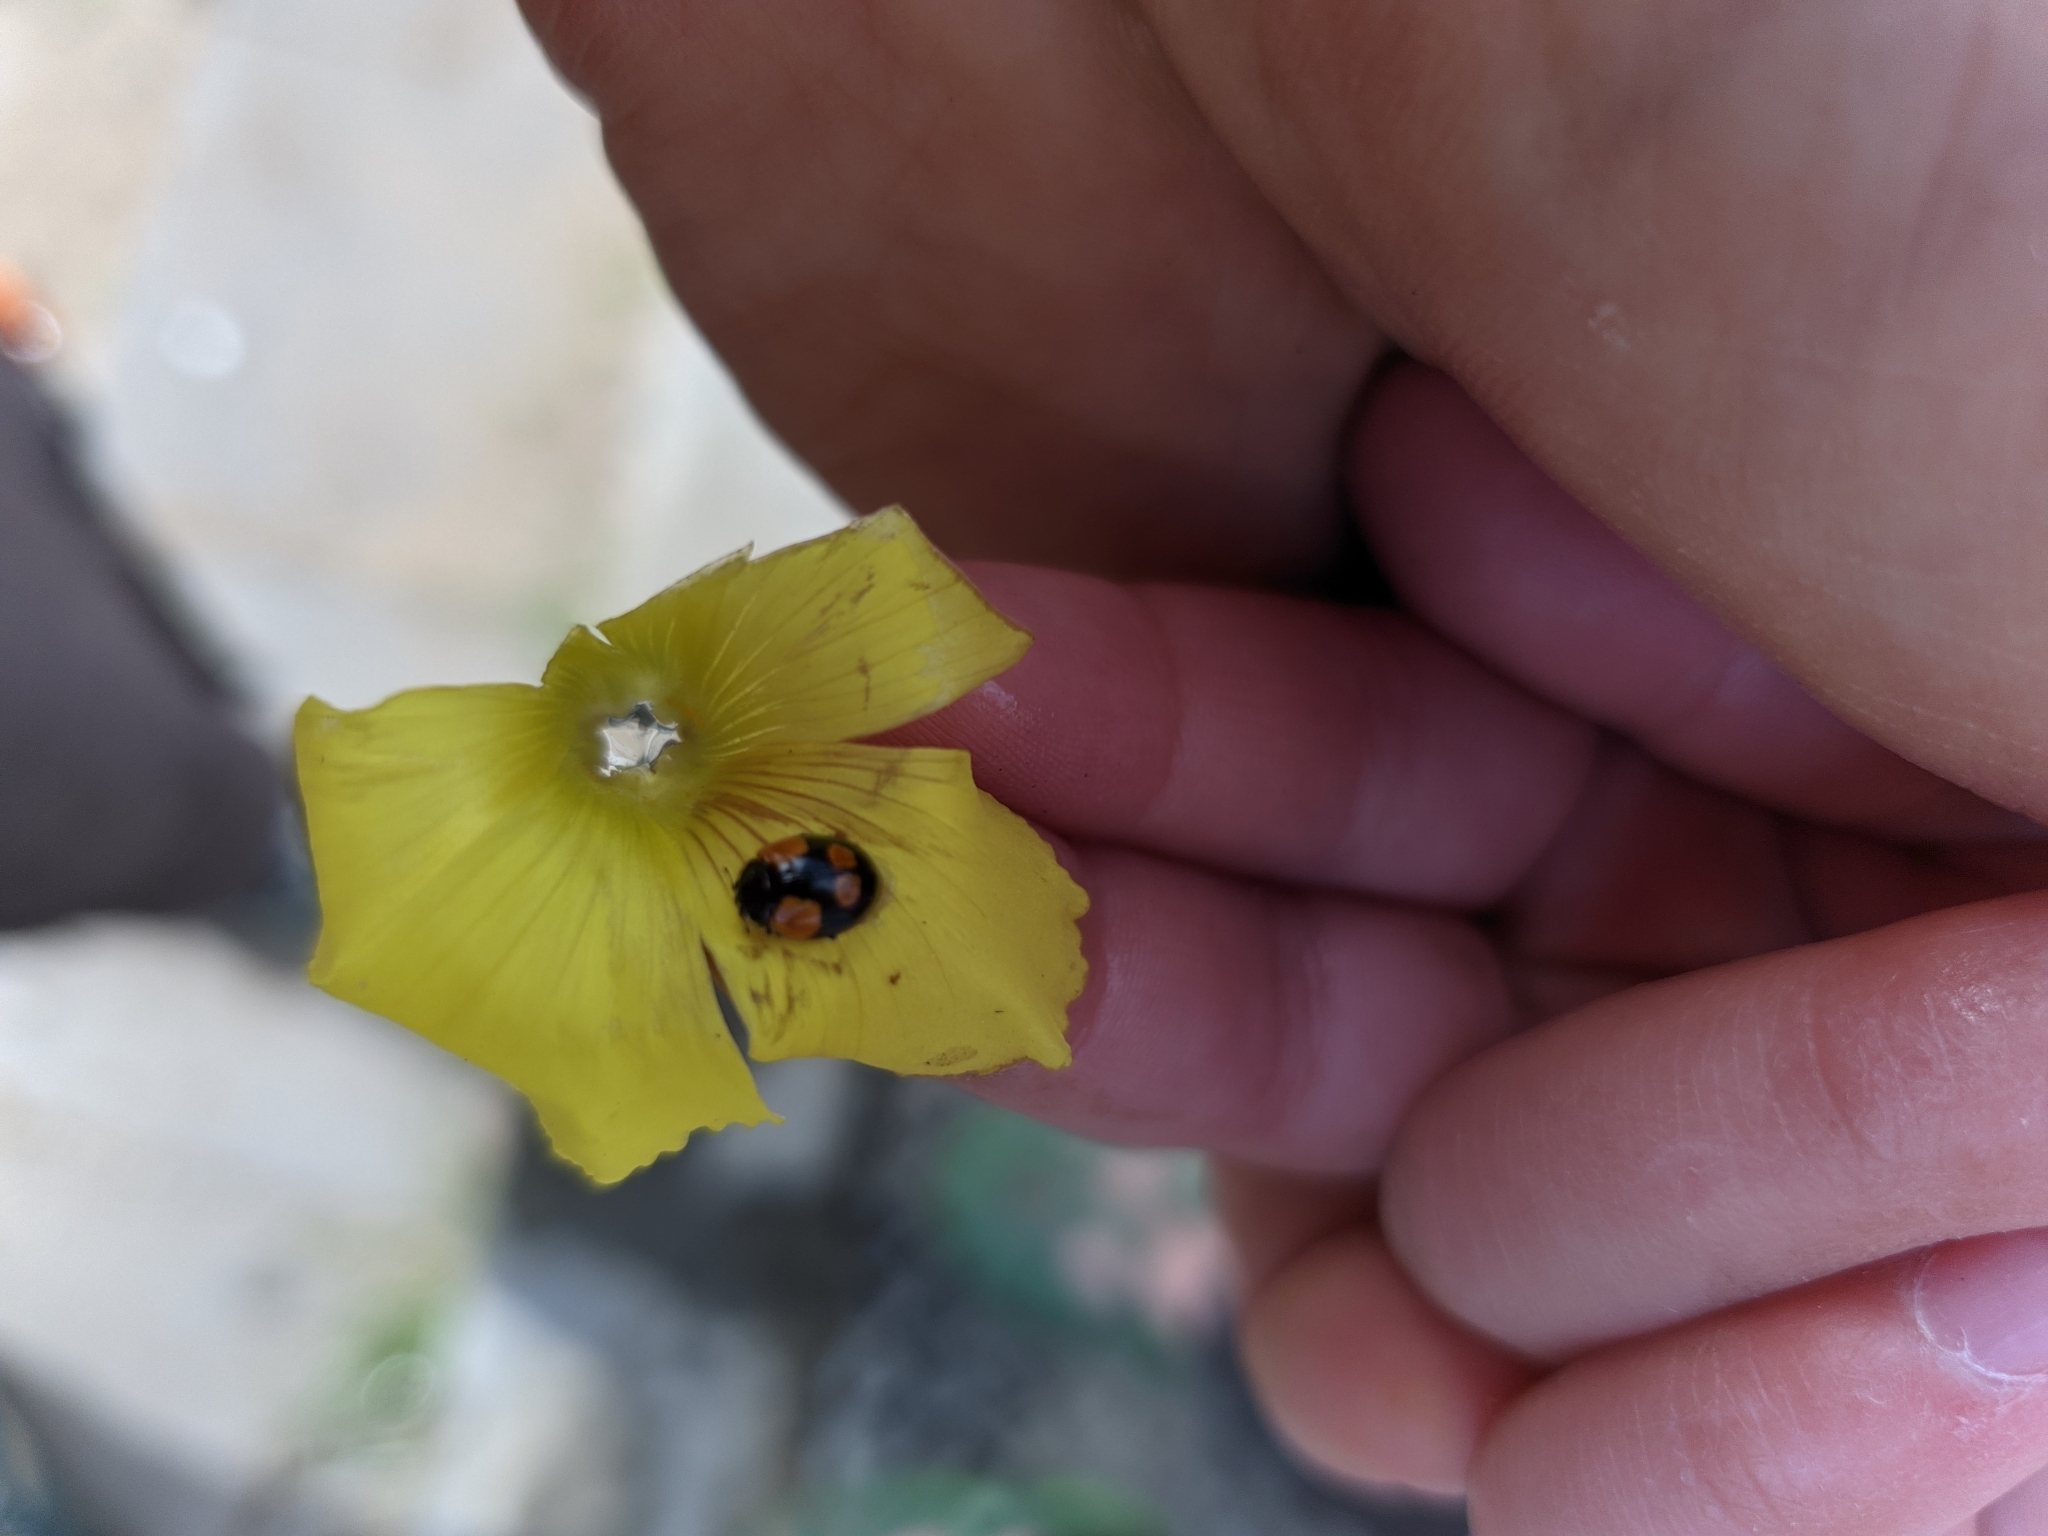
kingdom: Animalia
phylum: Arthropoda
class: Insecta
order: Coleoptera
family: Coccinellidae
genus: Adalia
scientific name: Adalia bipunctata
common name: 2-spot ladybird
